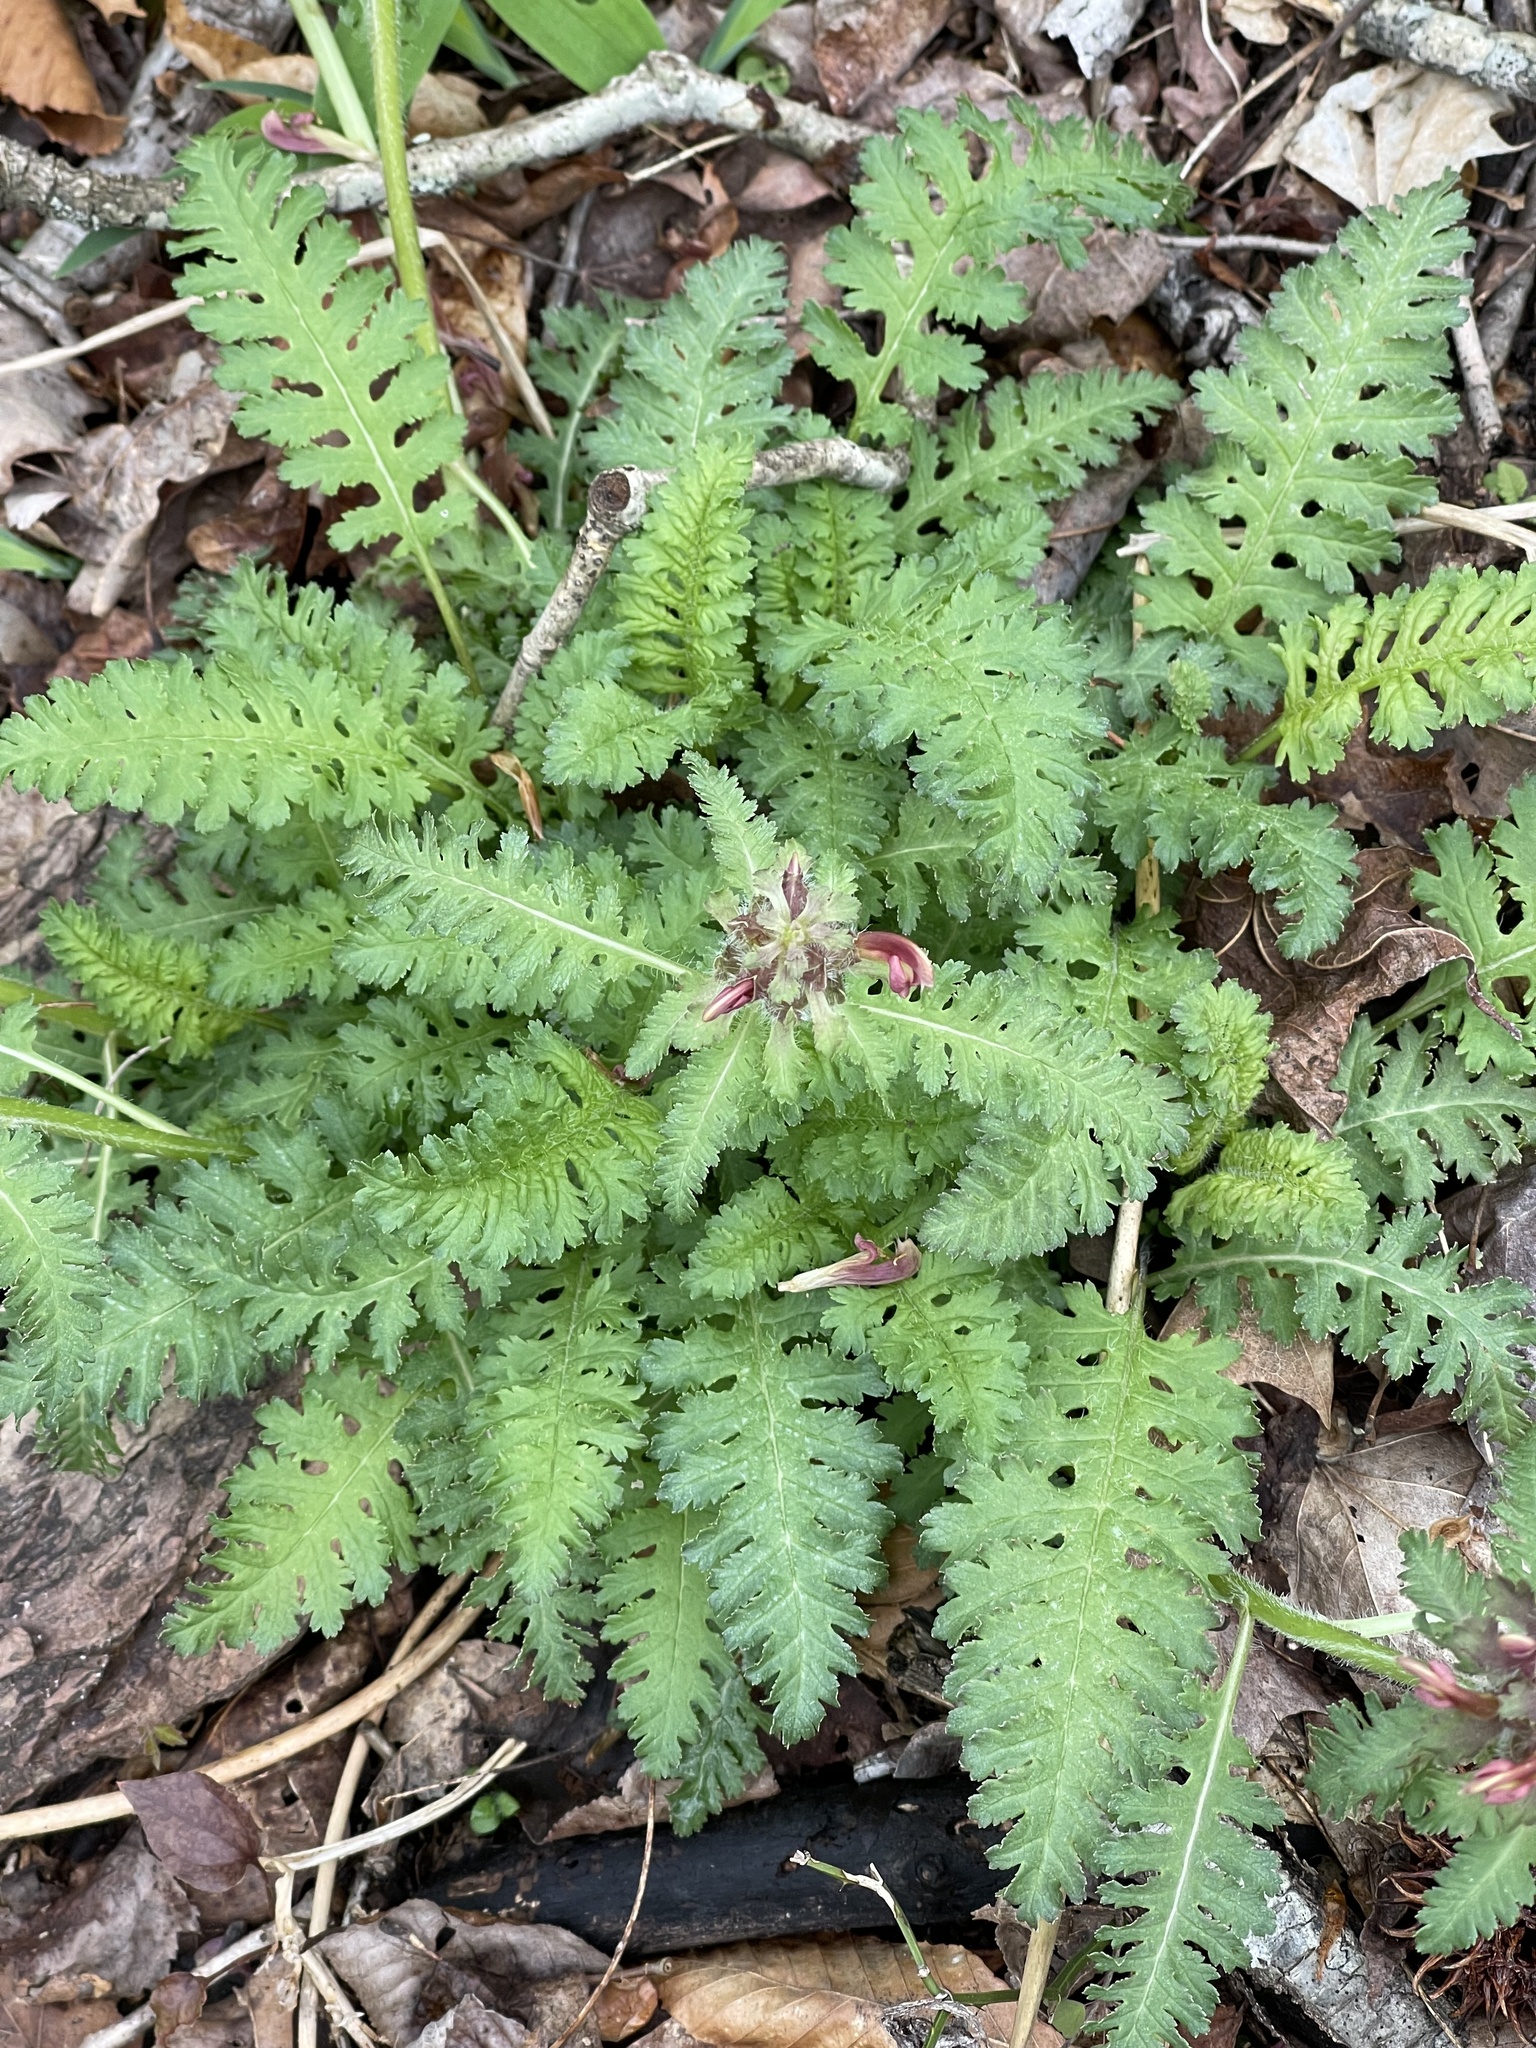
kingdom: Plantae
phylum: Tracheophyta
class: Magnoliopsida
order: Lamiales
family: Orobanchaceae
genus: Pedicularis
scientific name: Pedicularis canadensis
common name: Early lousewort
